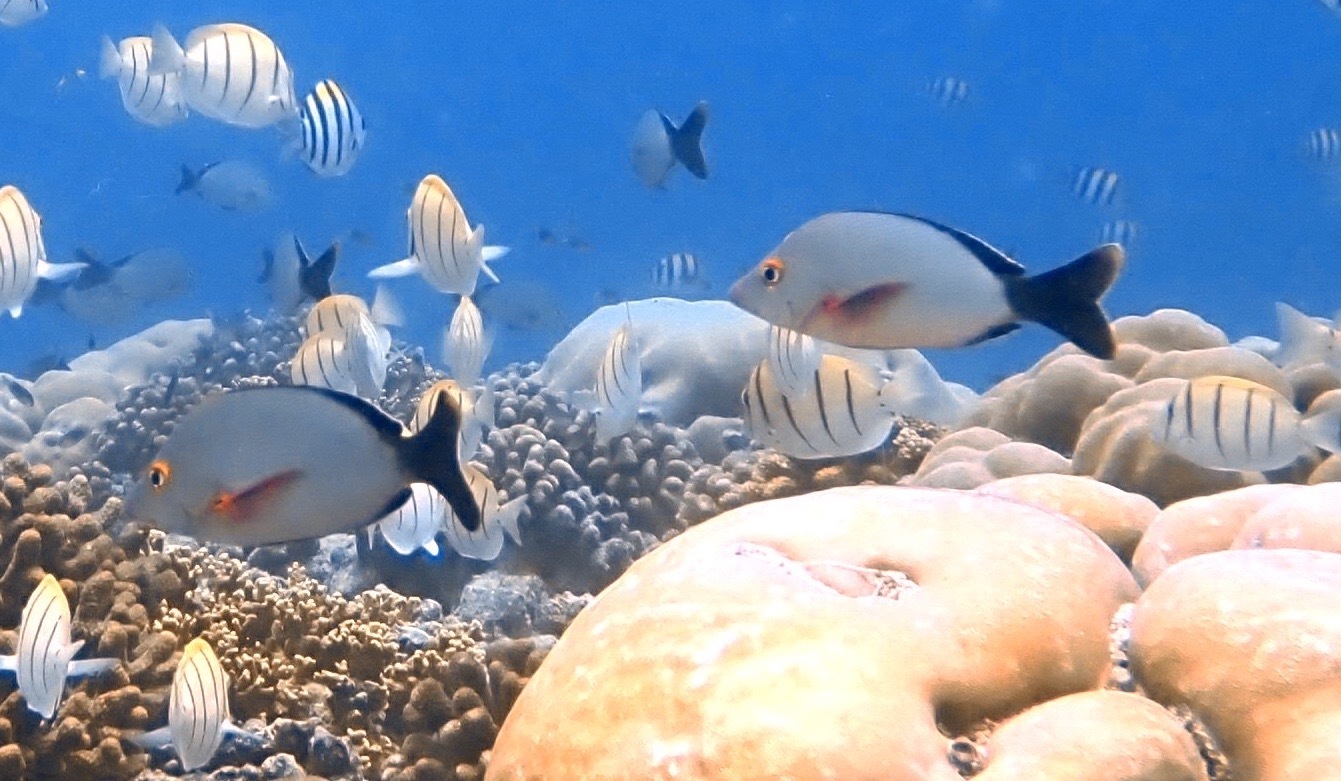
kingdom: Animalia
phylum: Chordata
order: Perciformes
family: Lutjanidae
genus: Lutjanus
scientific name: Lutjanus gibbus
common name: Humpback snapper
